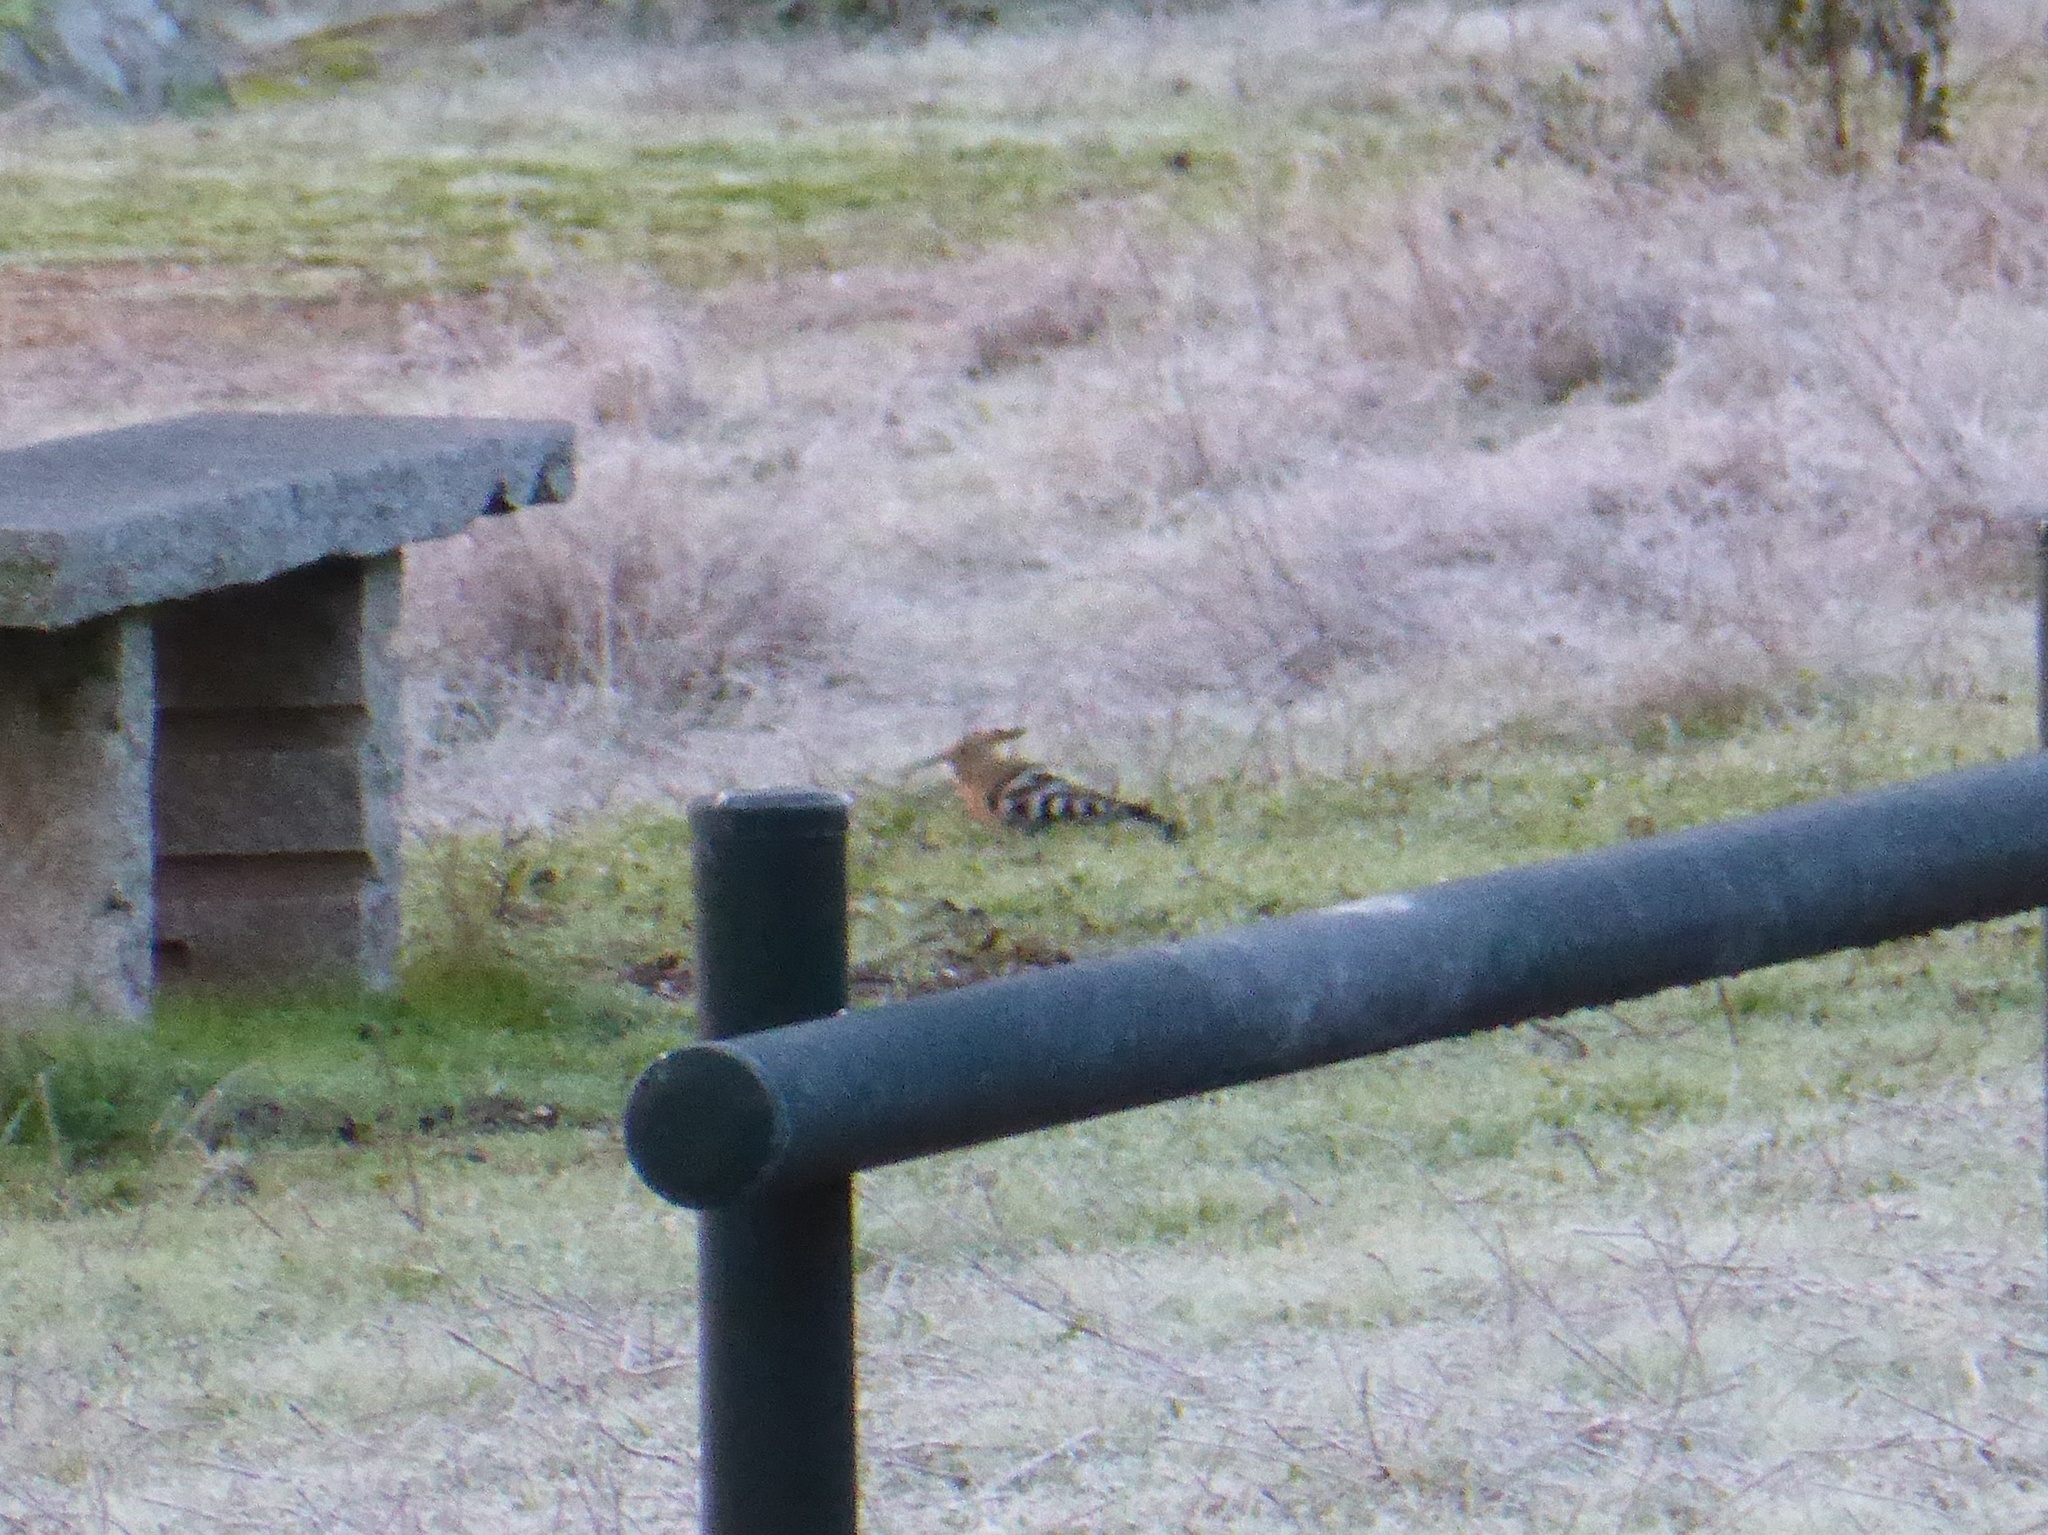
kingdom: Animalia
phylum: Chordata
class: Aves
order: Bucerotiformes
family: Upupidae
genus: Upupa
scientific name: Upupa epops
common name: Eurasian hoopoe
